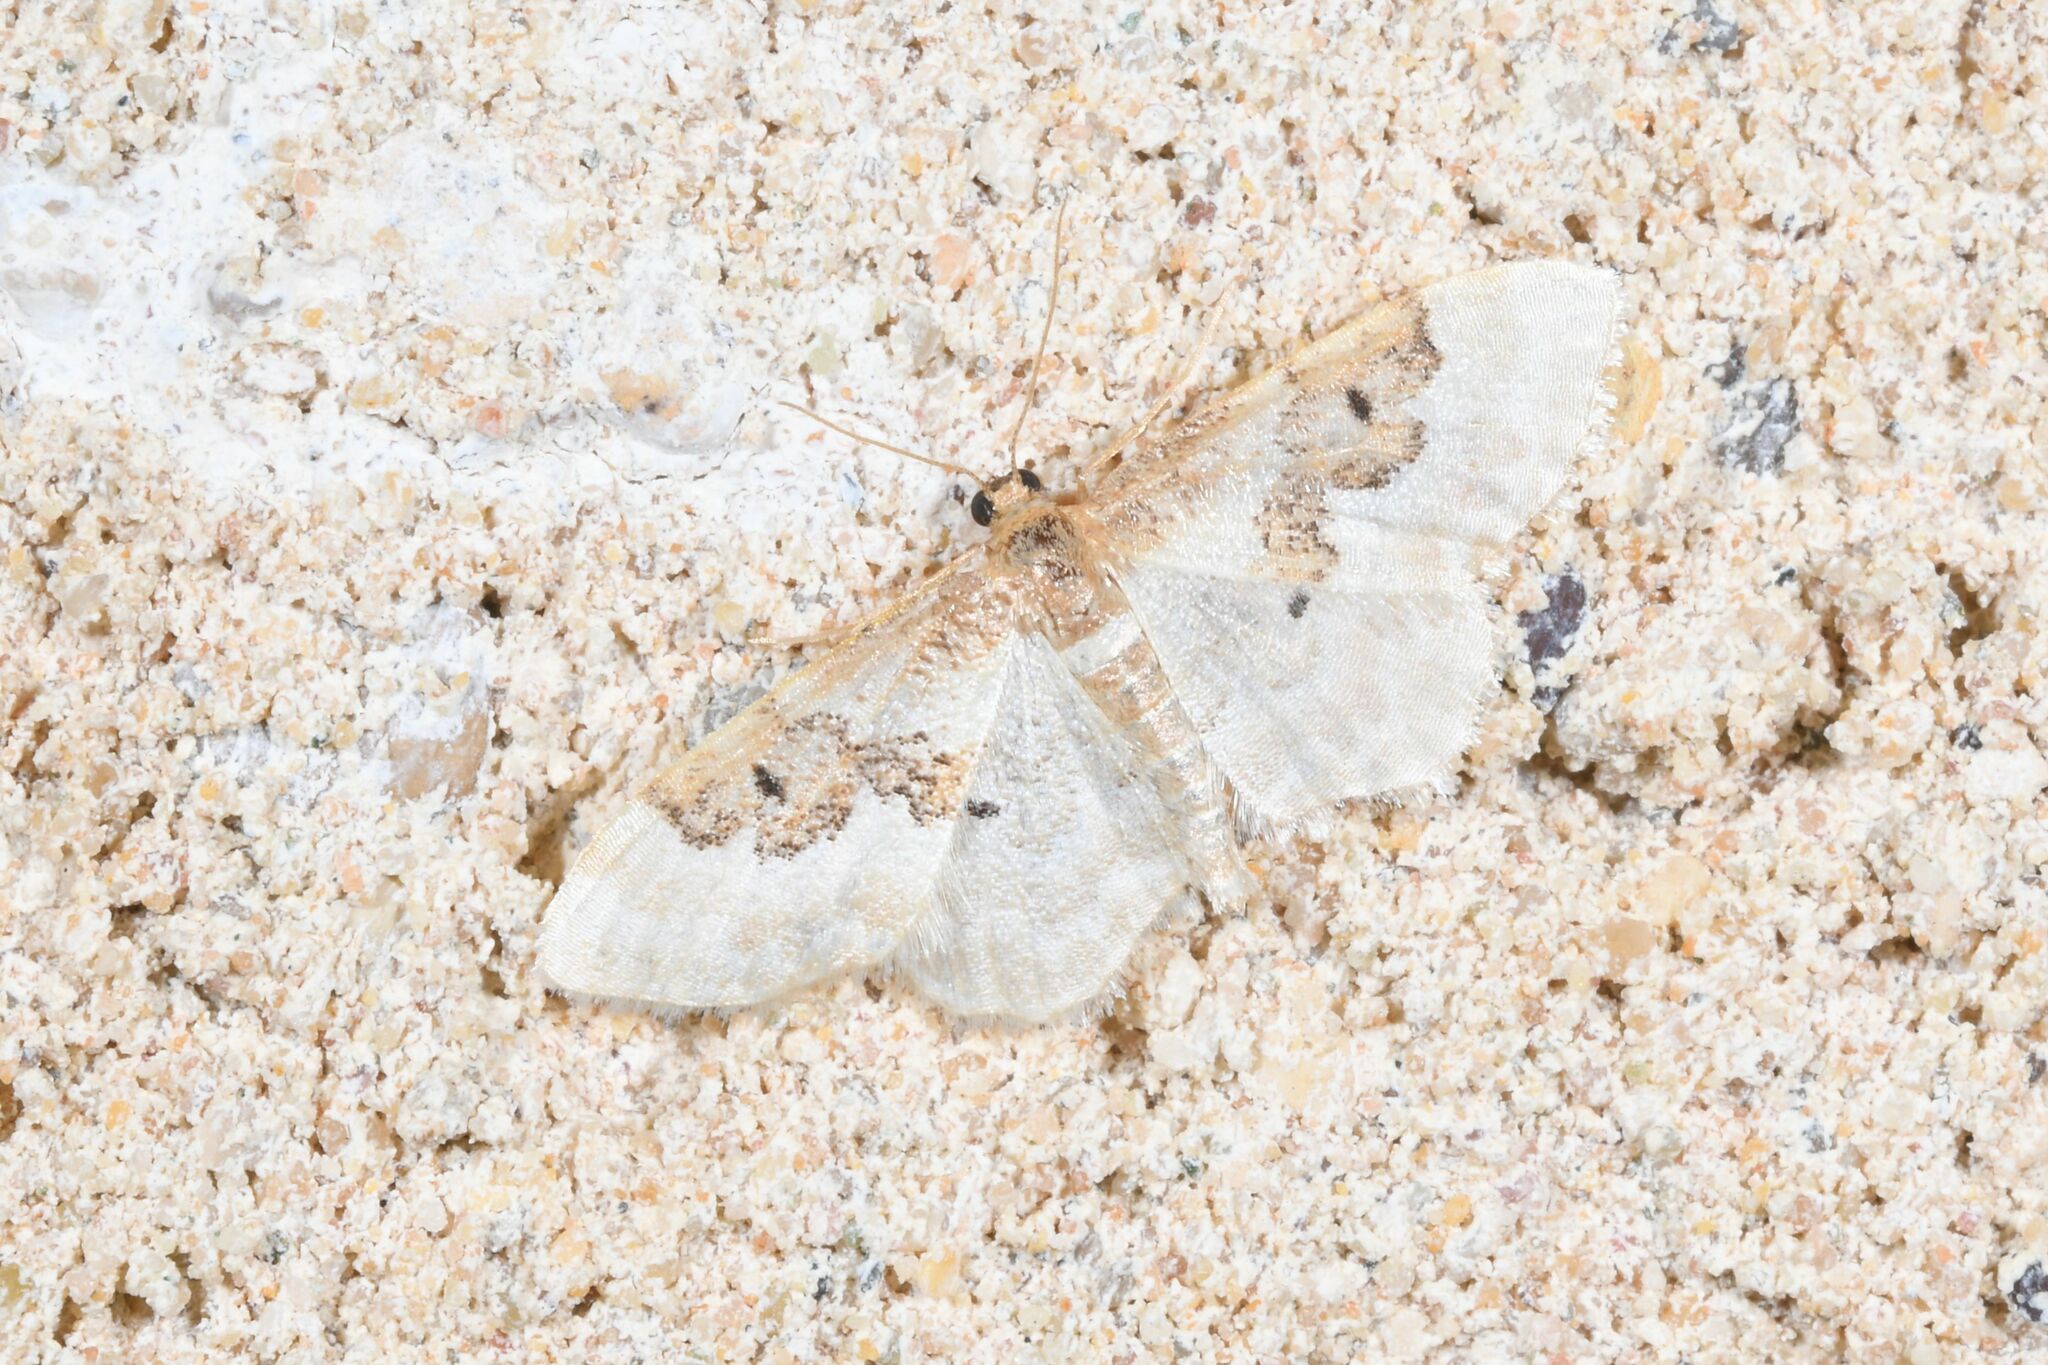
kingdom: Animalia
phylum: Arthropoda
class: Insecta
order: Lepidoptera
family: Geometridae
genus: Idaea
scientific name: Idaea rusticata
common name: Least carpet
